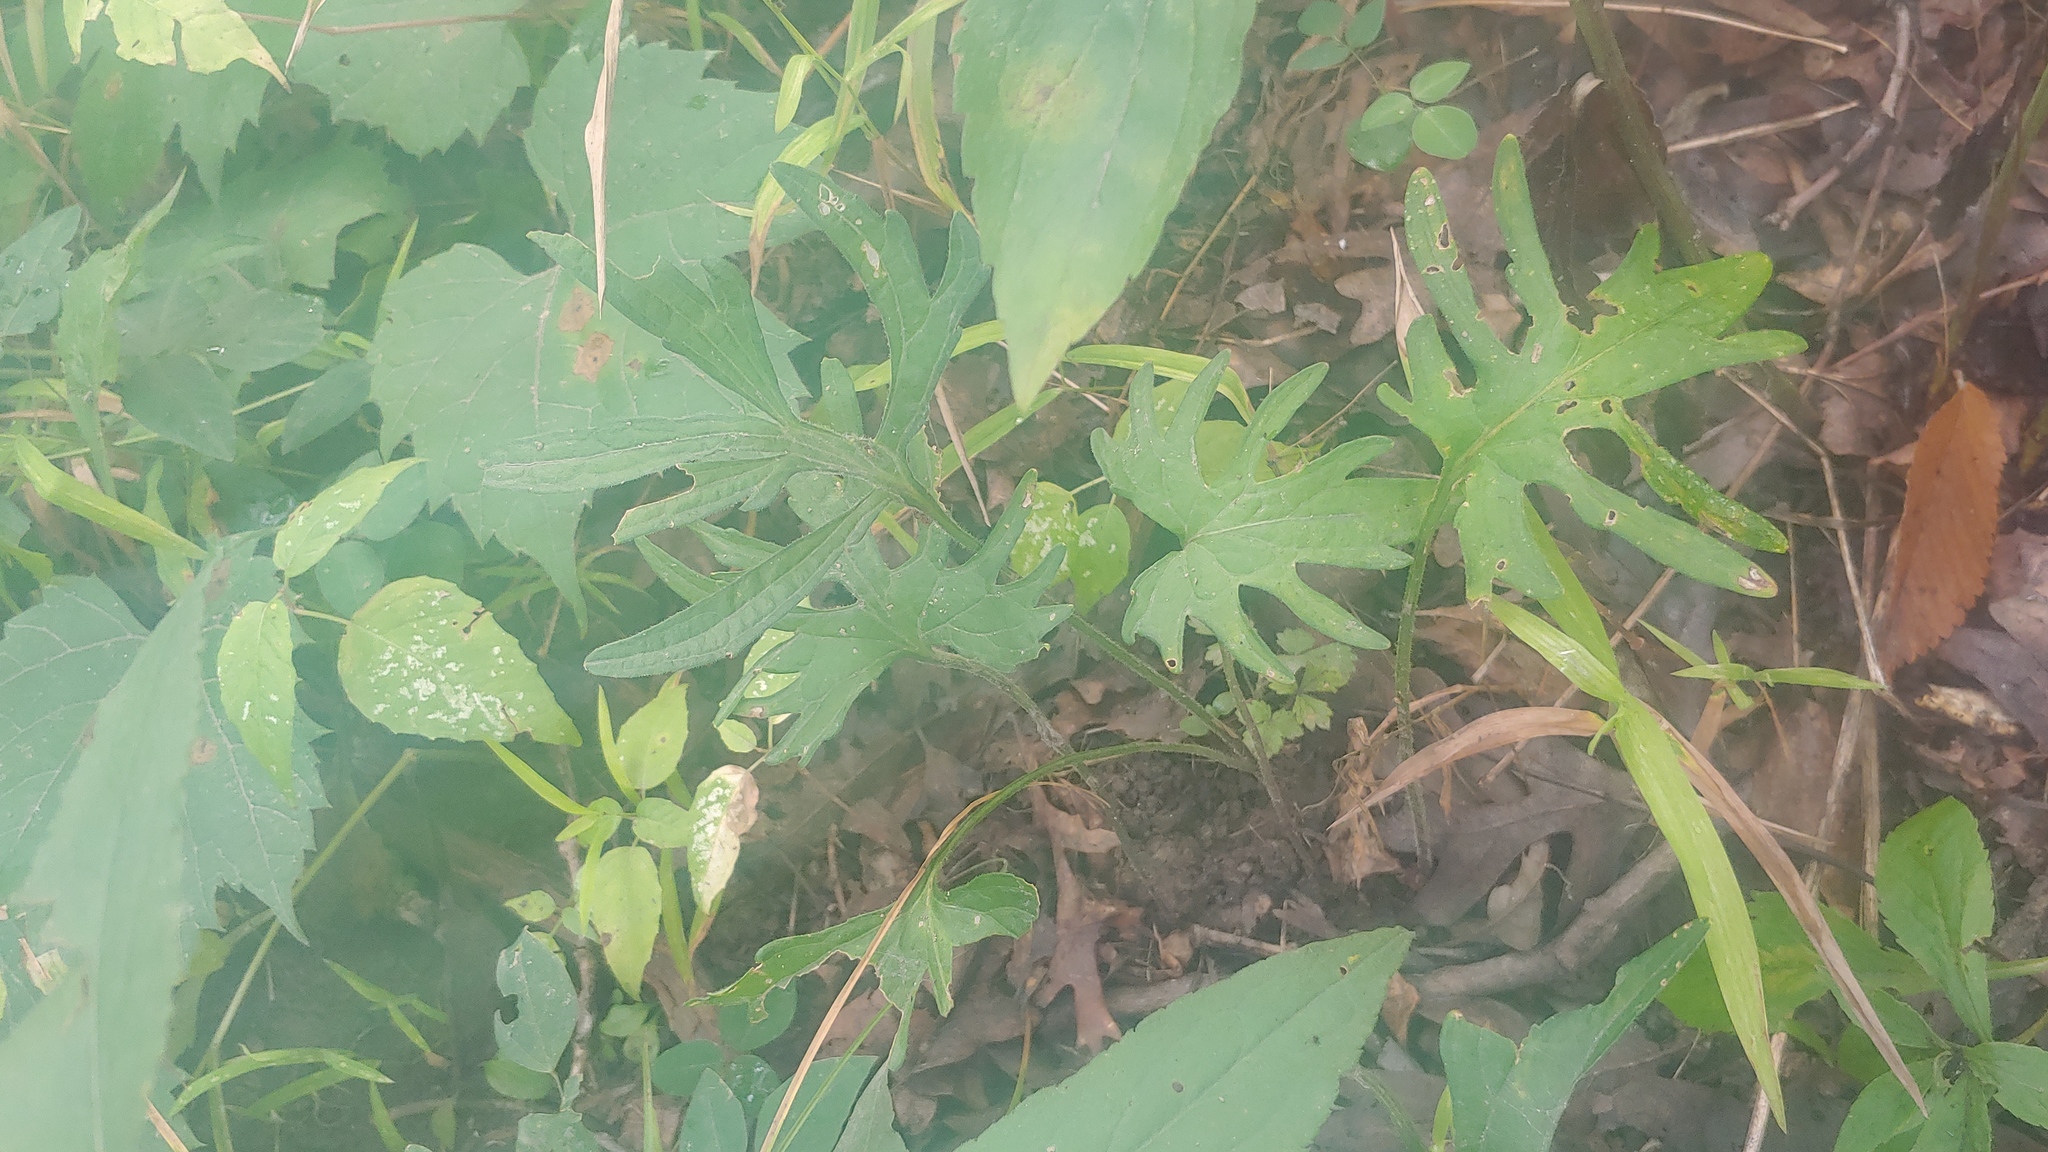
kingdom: Plantae
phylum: Tracheophyta
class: Magnoliopsida
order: Malpighiales
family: Violaceae
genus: Viola
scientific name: Viola subsinuata
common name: Wood violet
